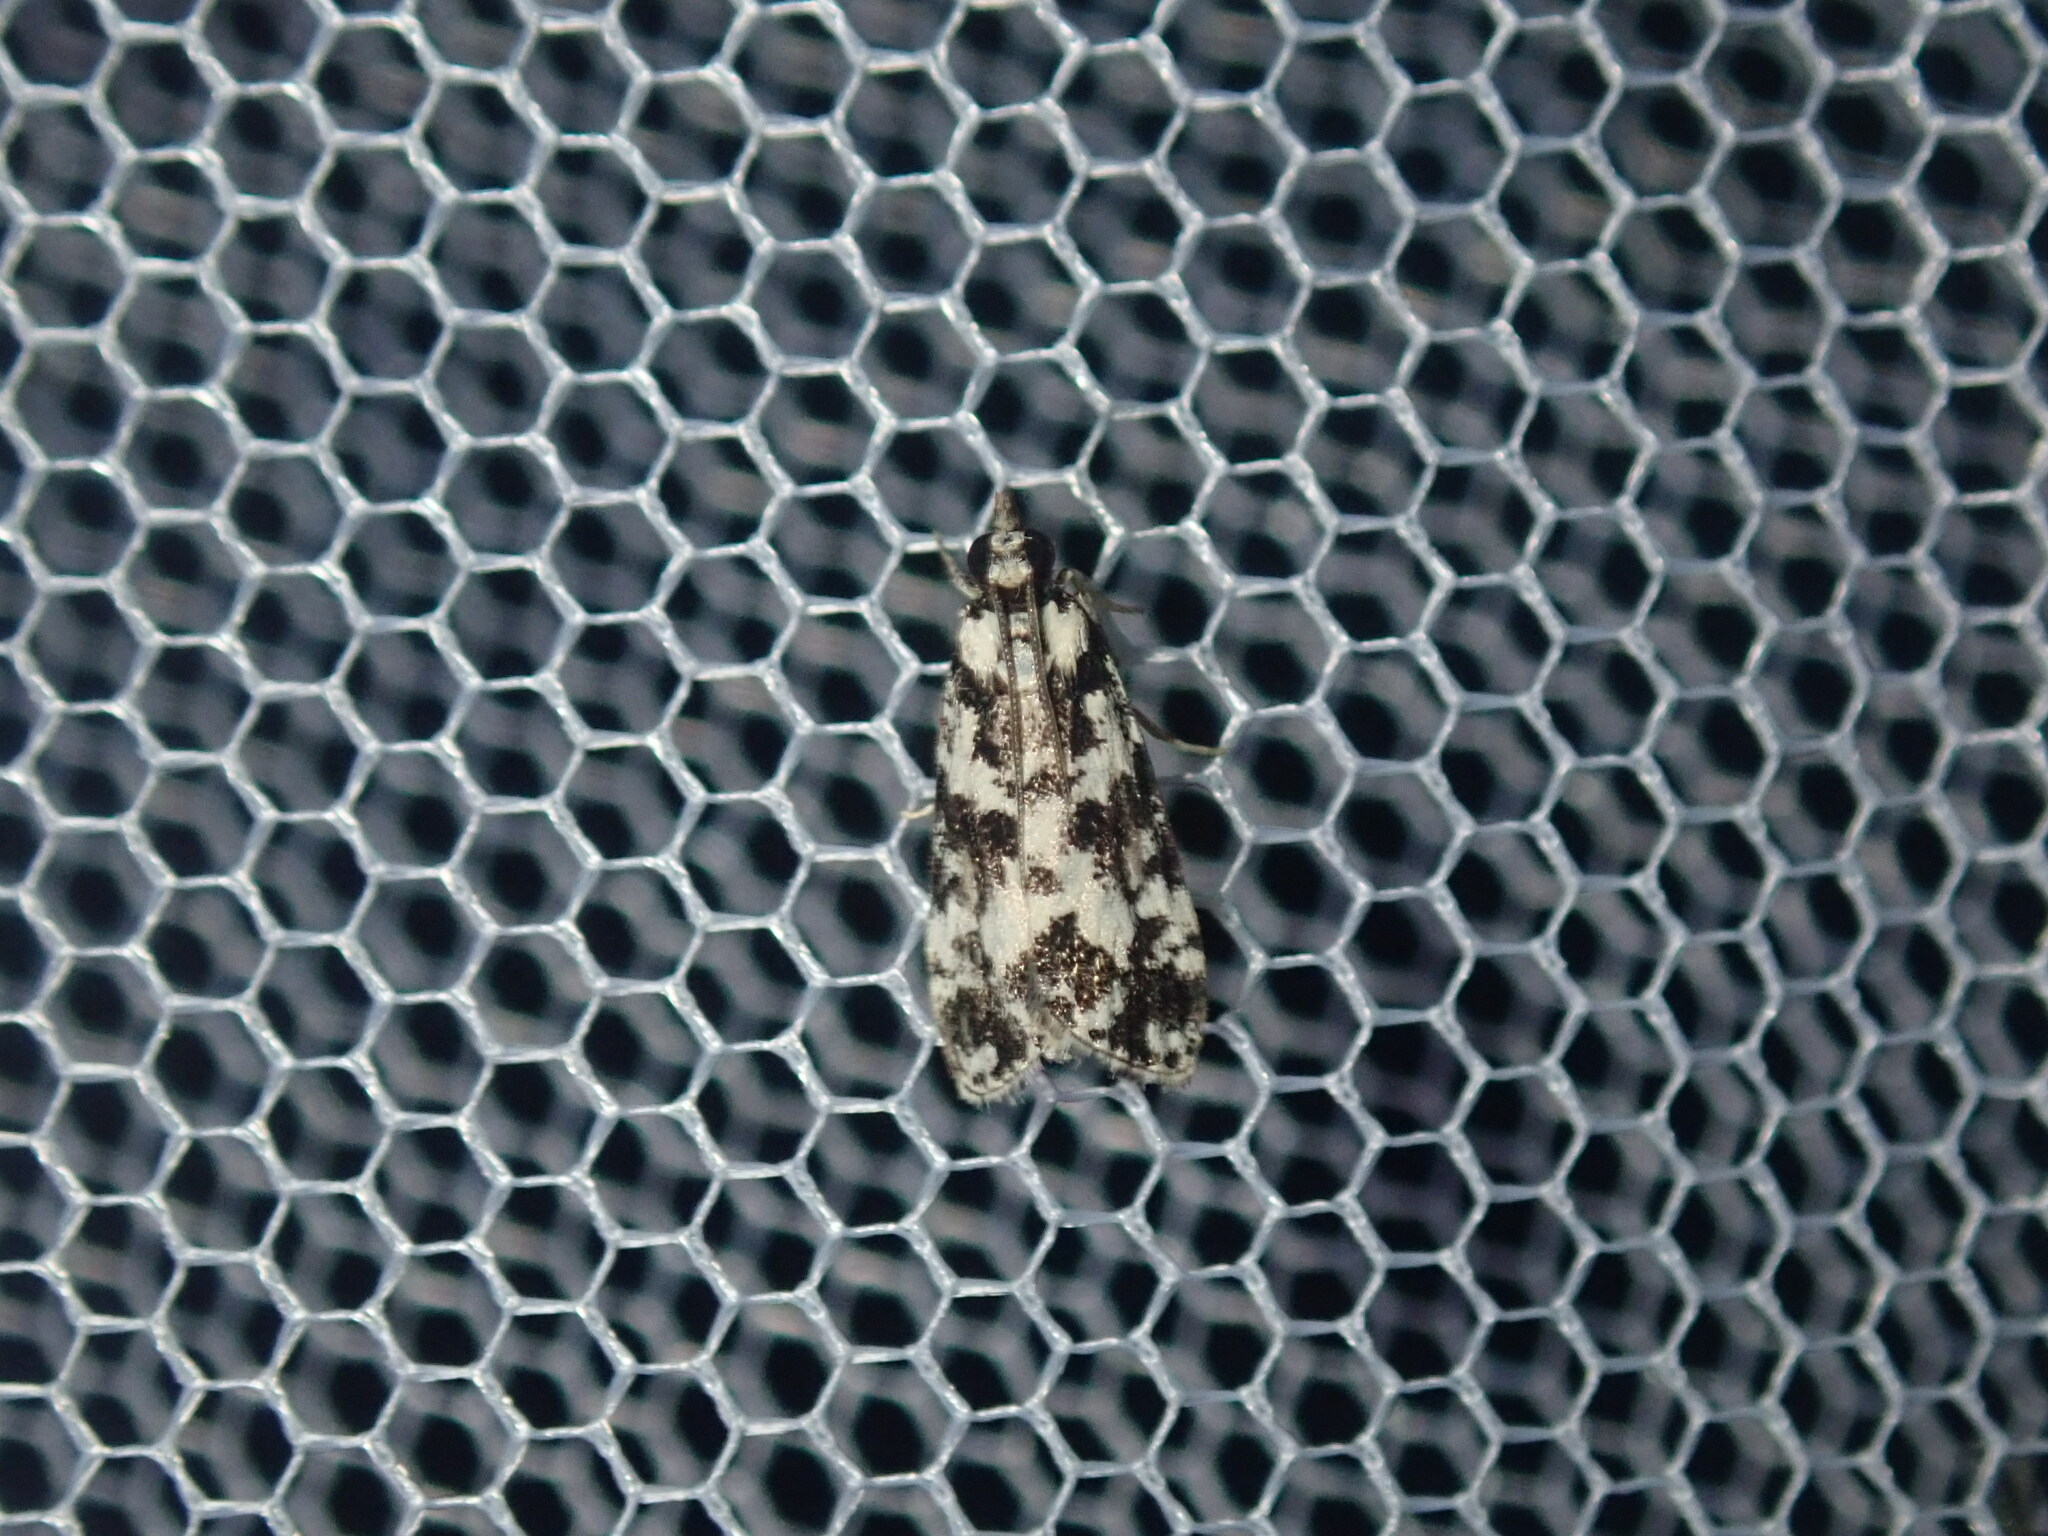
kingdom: Animalia
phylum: Arthropoda
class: Insecta
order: Lepidoptera
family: Crambidae
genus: Eudonia
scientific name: Eudonia aphrodes
